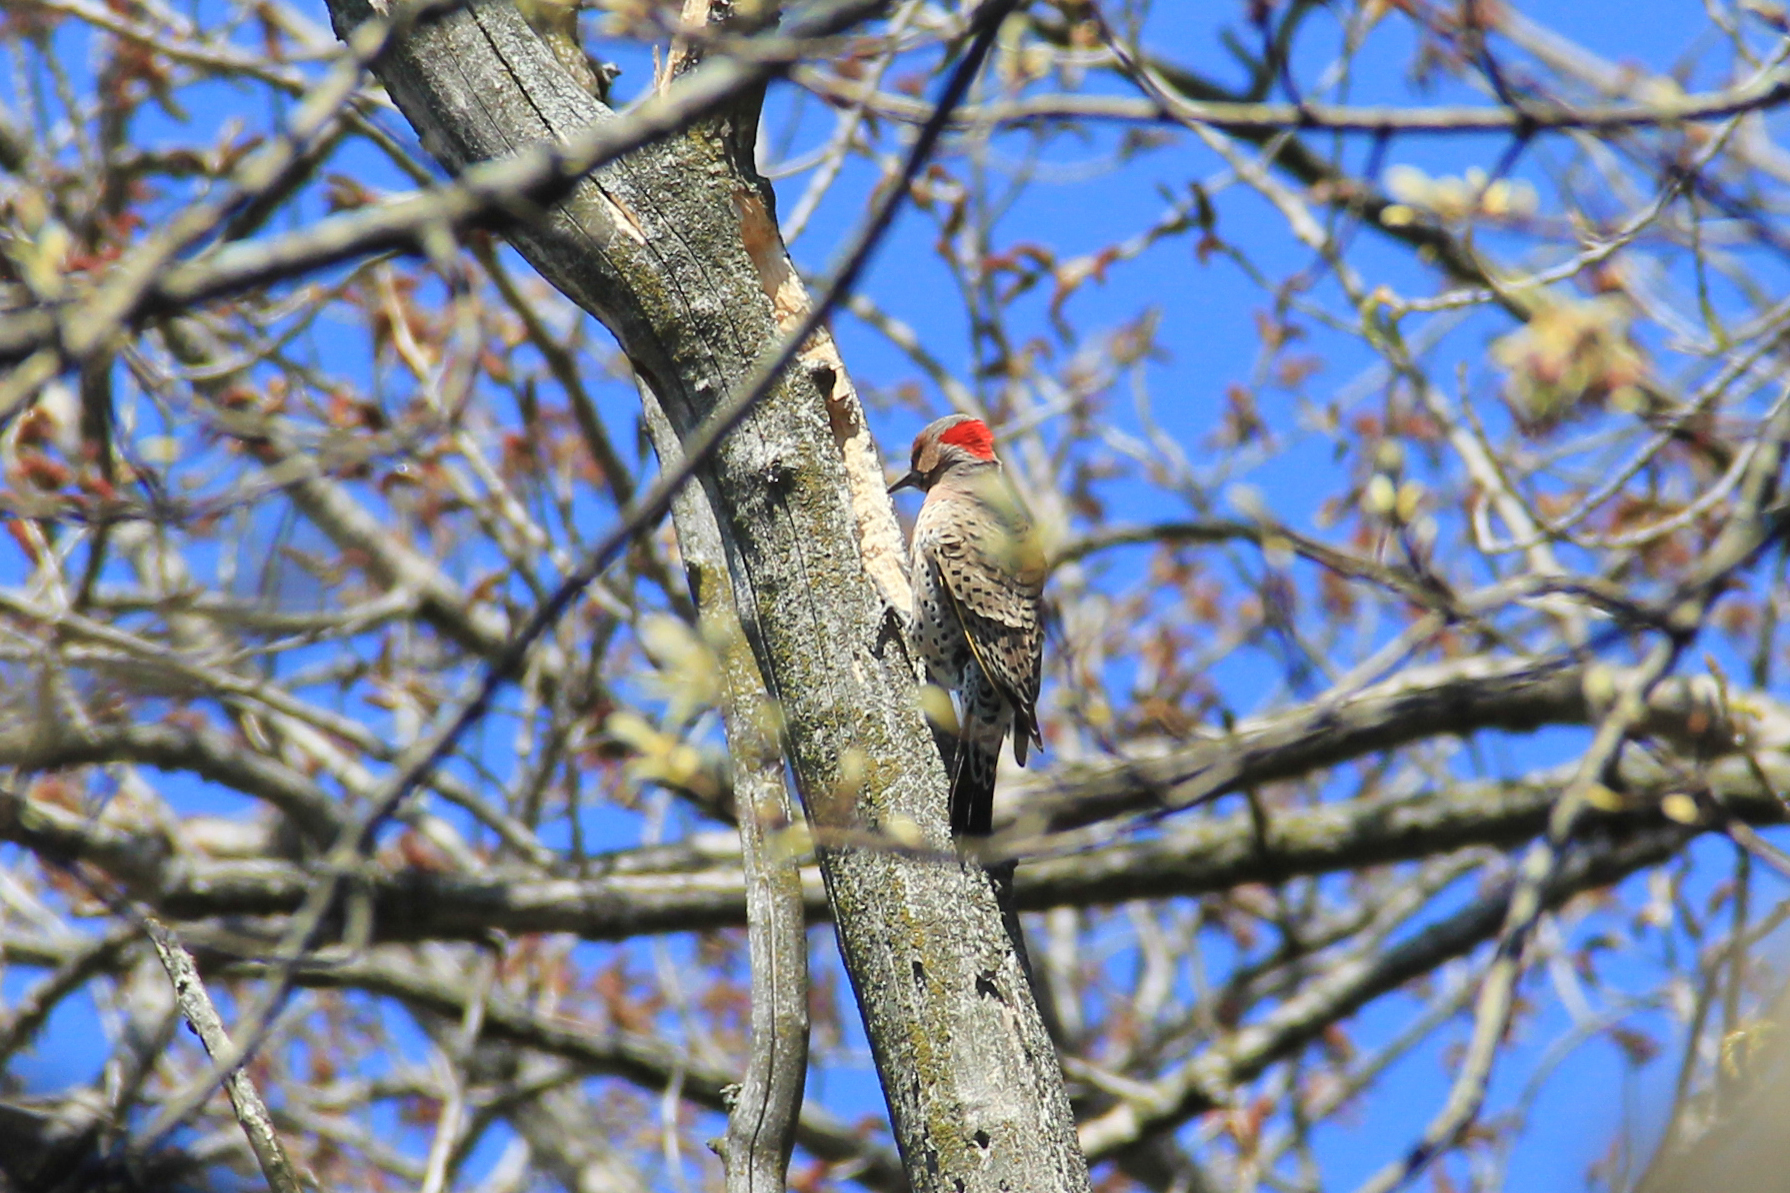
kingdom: Animalia
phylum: Chordata
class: Aves
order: Piciformes
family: Picidae
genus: Colaptes
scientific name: Colaptes auratus
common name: Northern flicker
